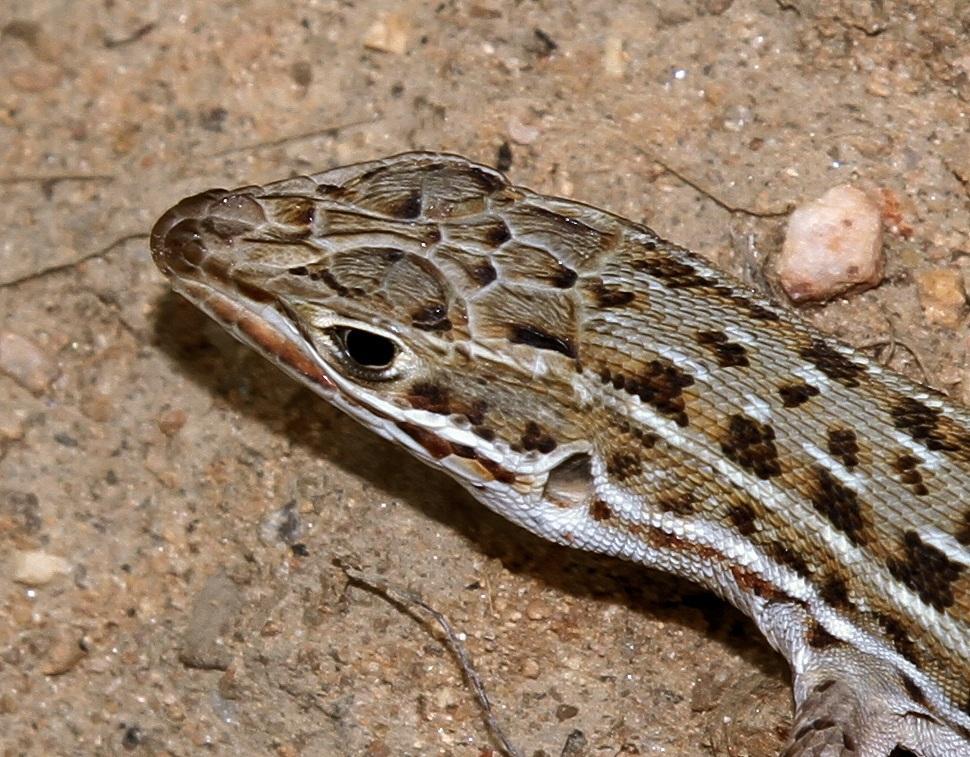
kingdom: Animalia
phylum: Chordata
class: Squamata
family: Lacertidae
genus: Meroles
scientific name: Meroles squamulosus
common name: Common desert lizard
